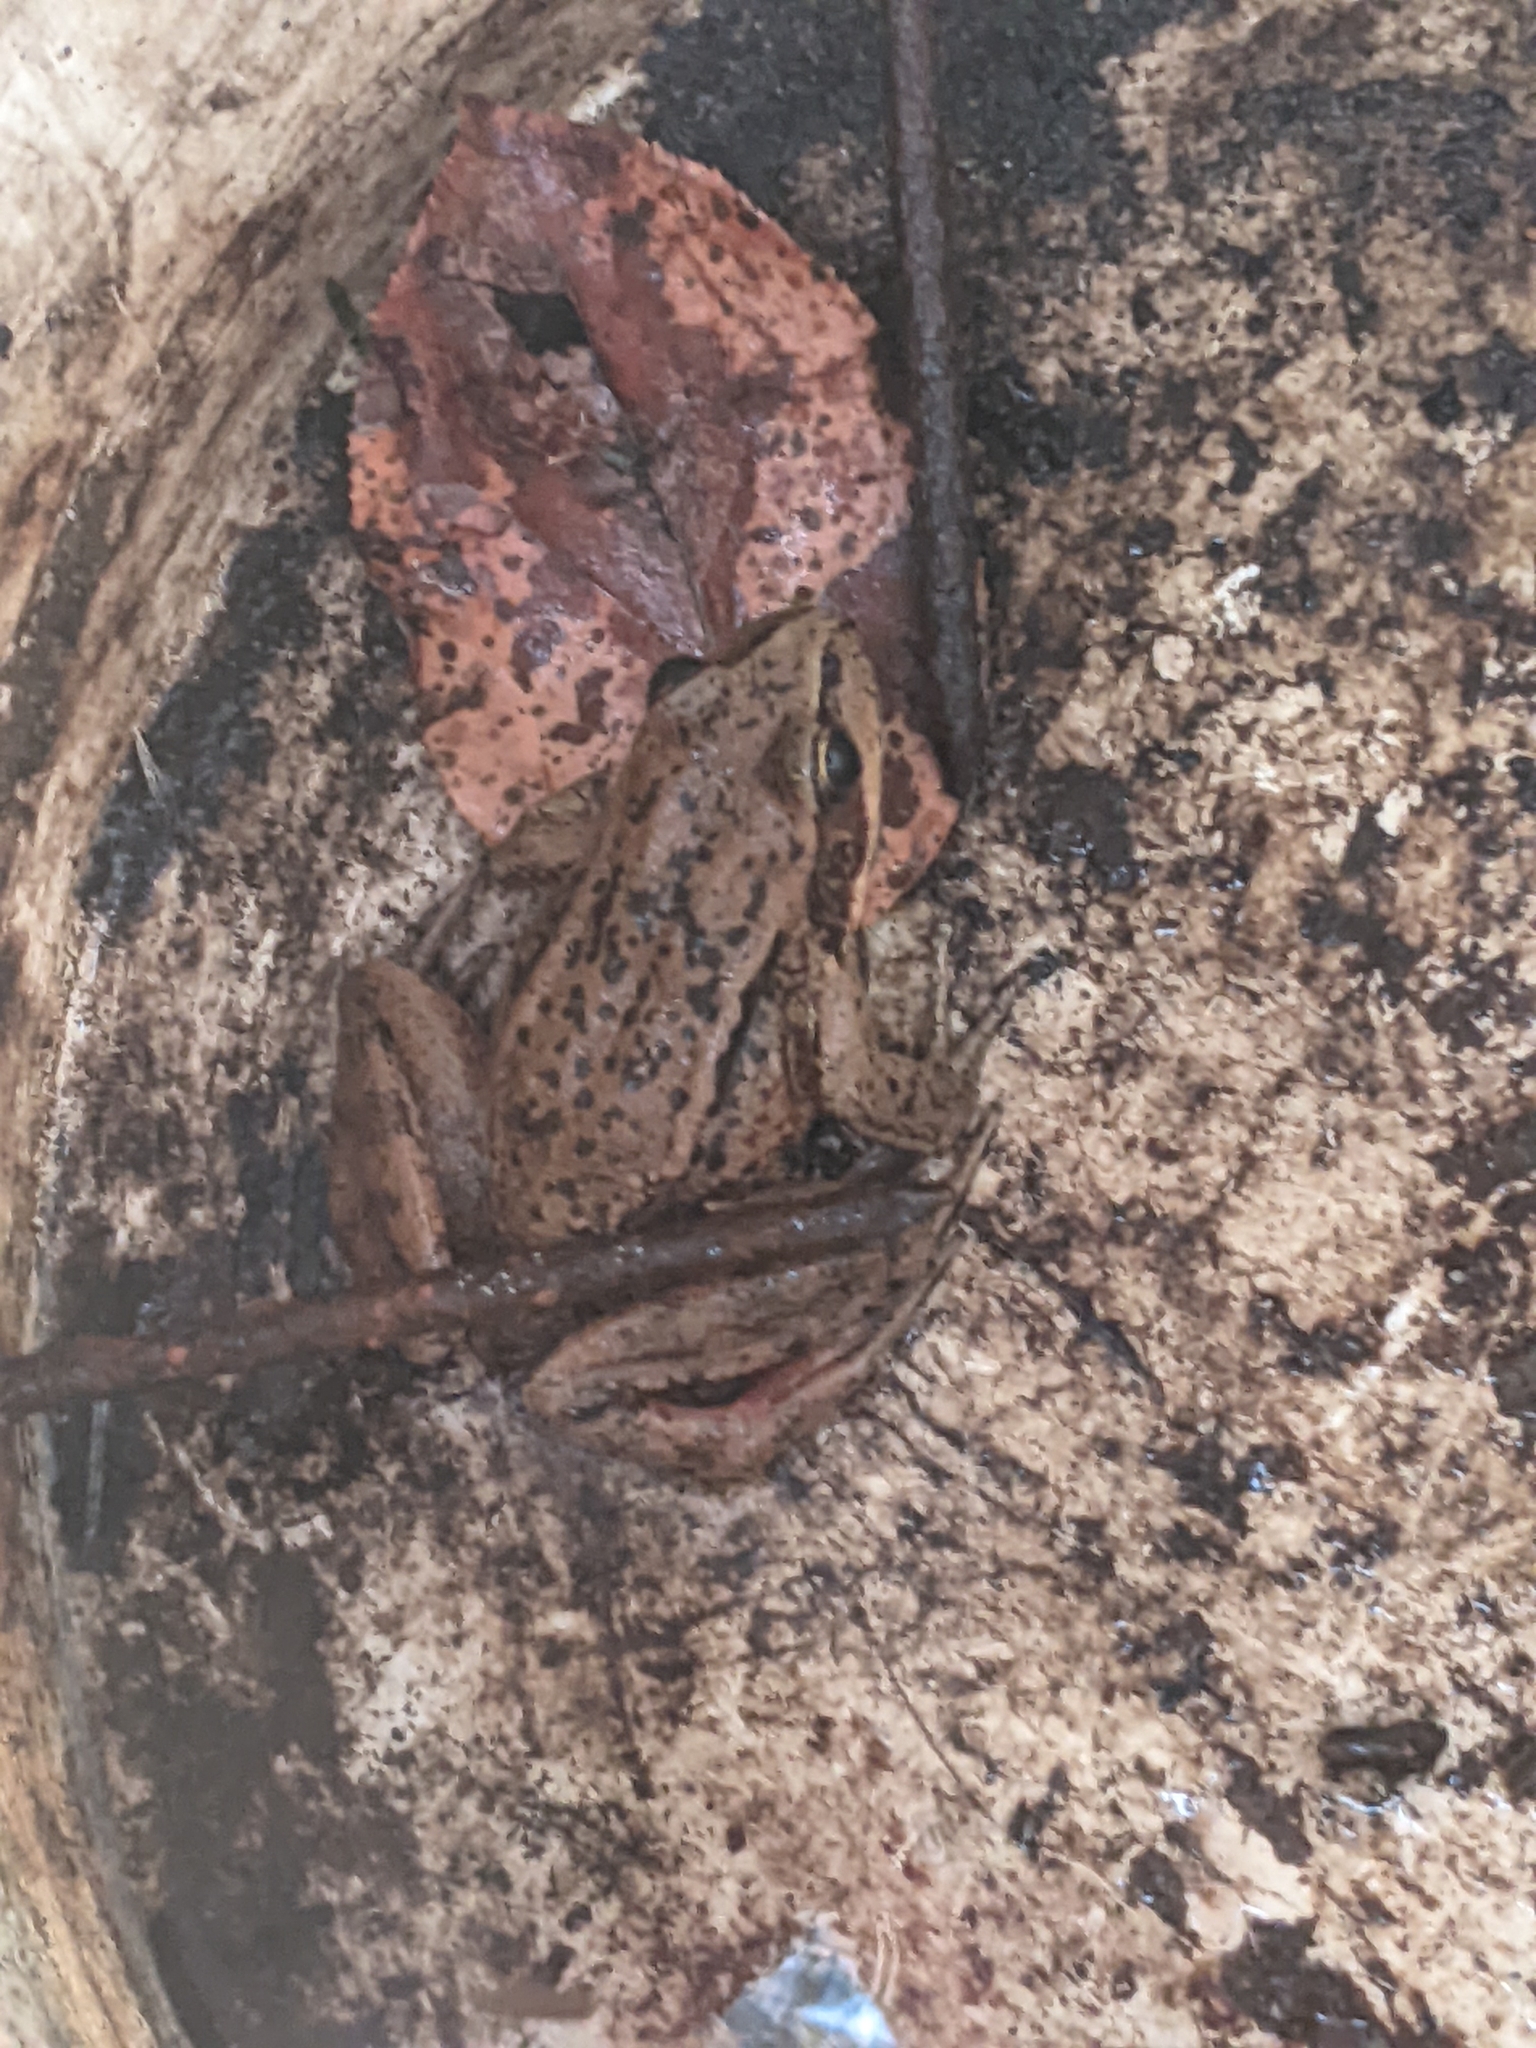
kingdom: Animalia
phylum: Chordata
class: Amphibia
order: Anura
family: Ranidae
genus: Rana
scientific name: Rana aurora
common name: Red-legged frog
